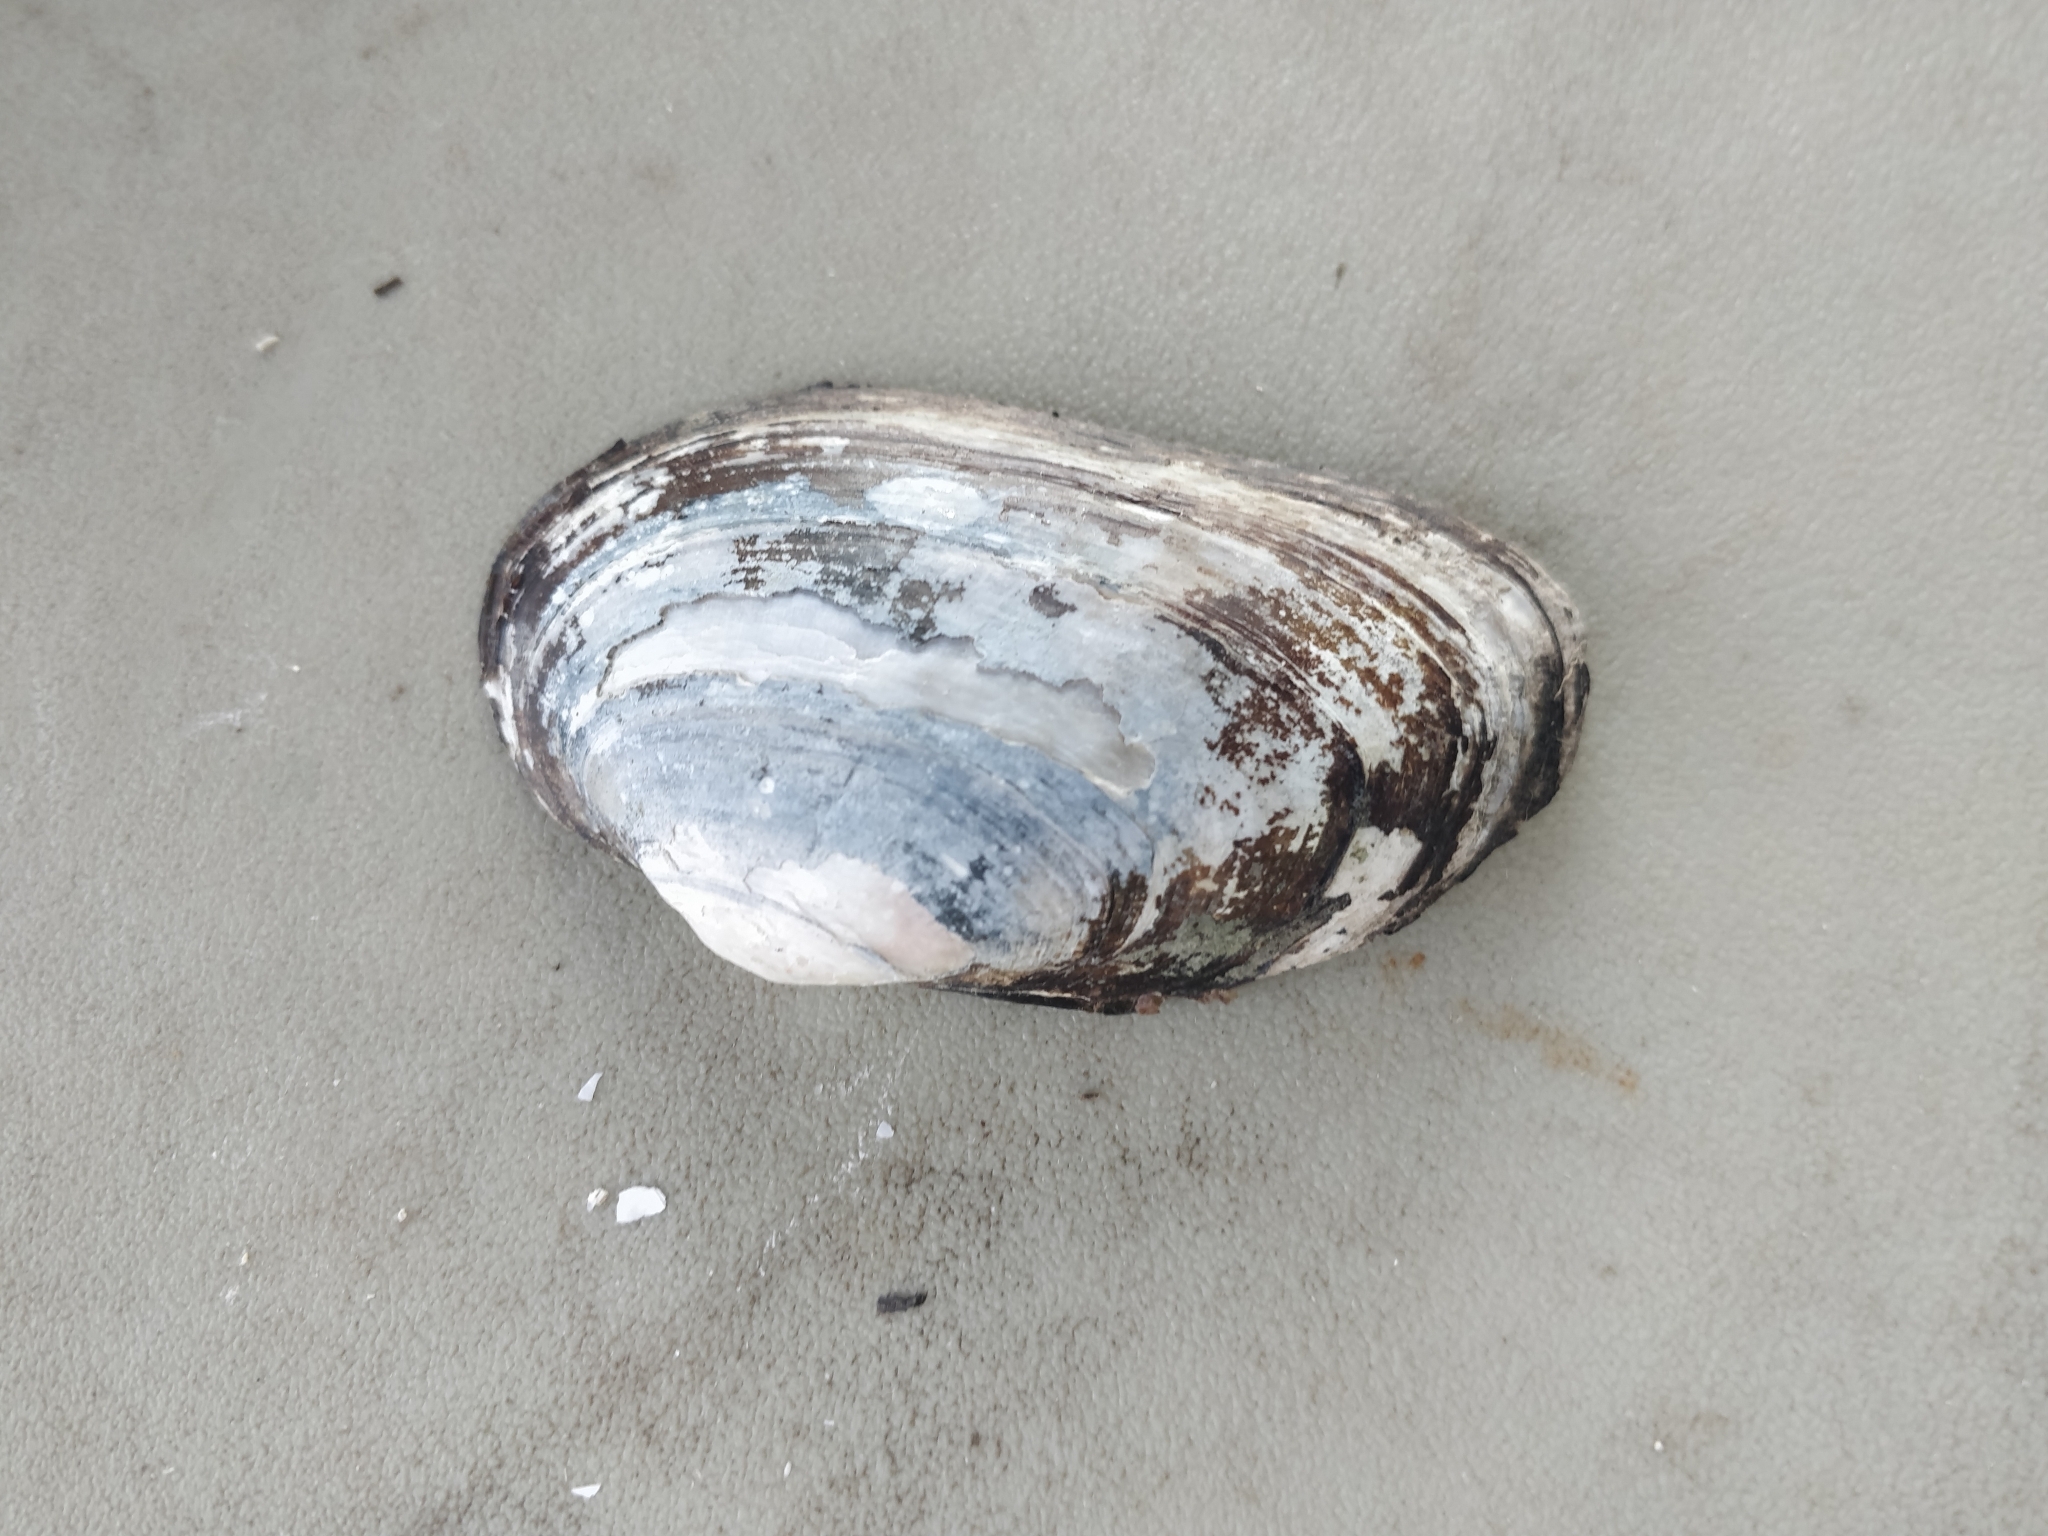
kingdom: Animalia
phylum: Mollusca
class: Bivalvia
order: Unionida
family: Unionidae
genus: Strophitus
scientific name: Strophitus undulatus
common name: Creeper
